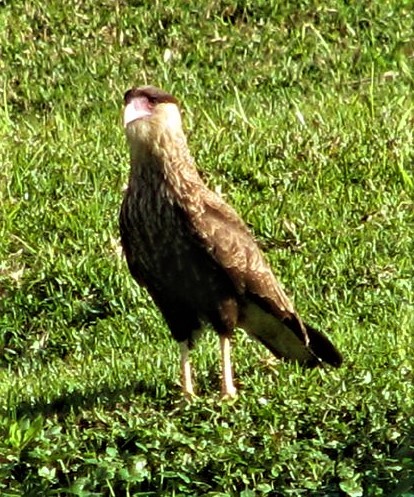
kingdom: Animalia
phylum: Chordata
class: Aves
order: Falconiformes
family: Falconidae
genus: Caracara
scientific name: Caracara plancus
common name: Southern caracara
